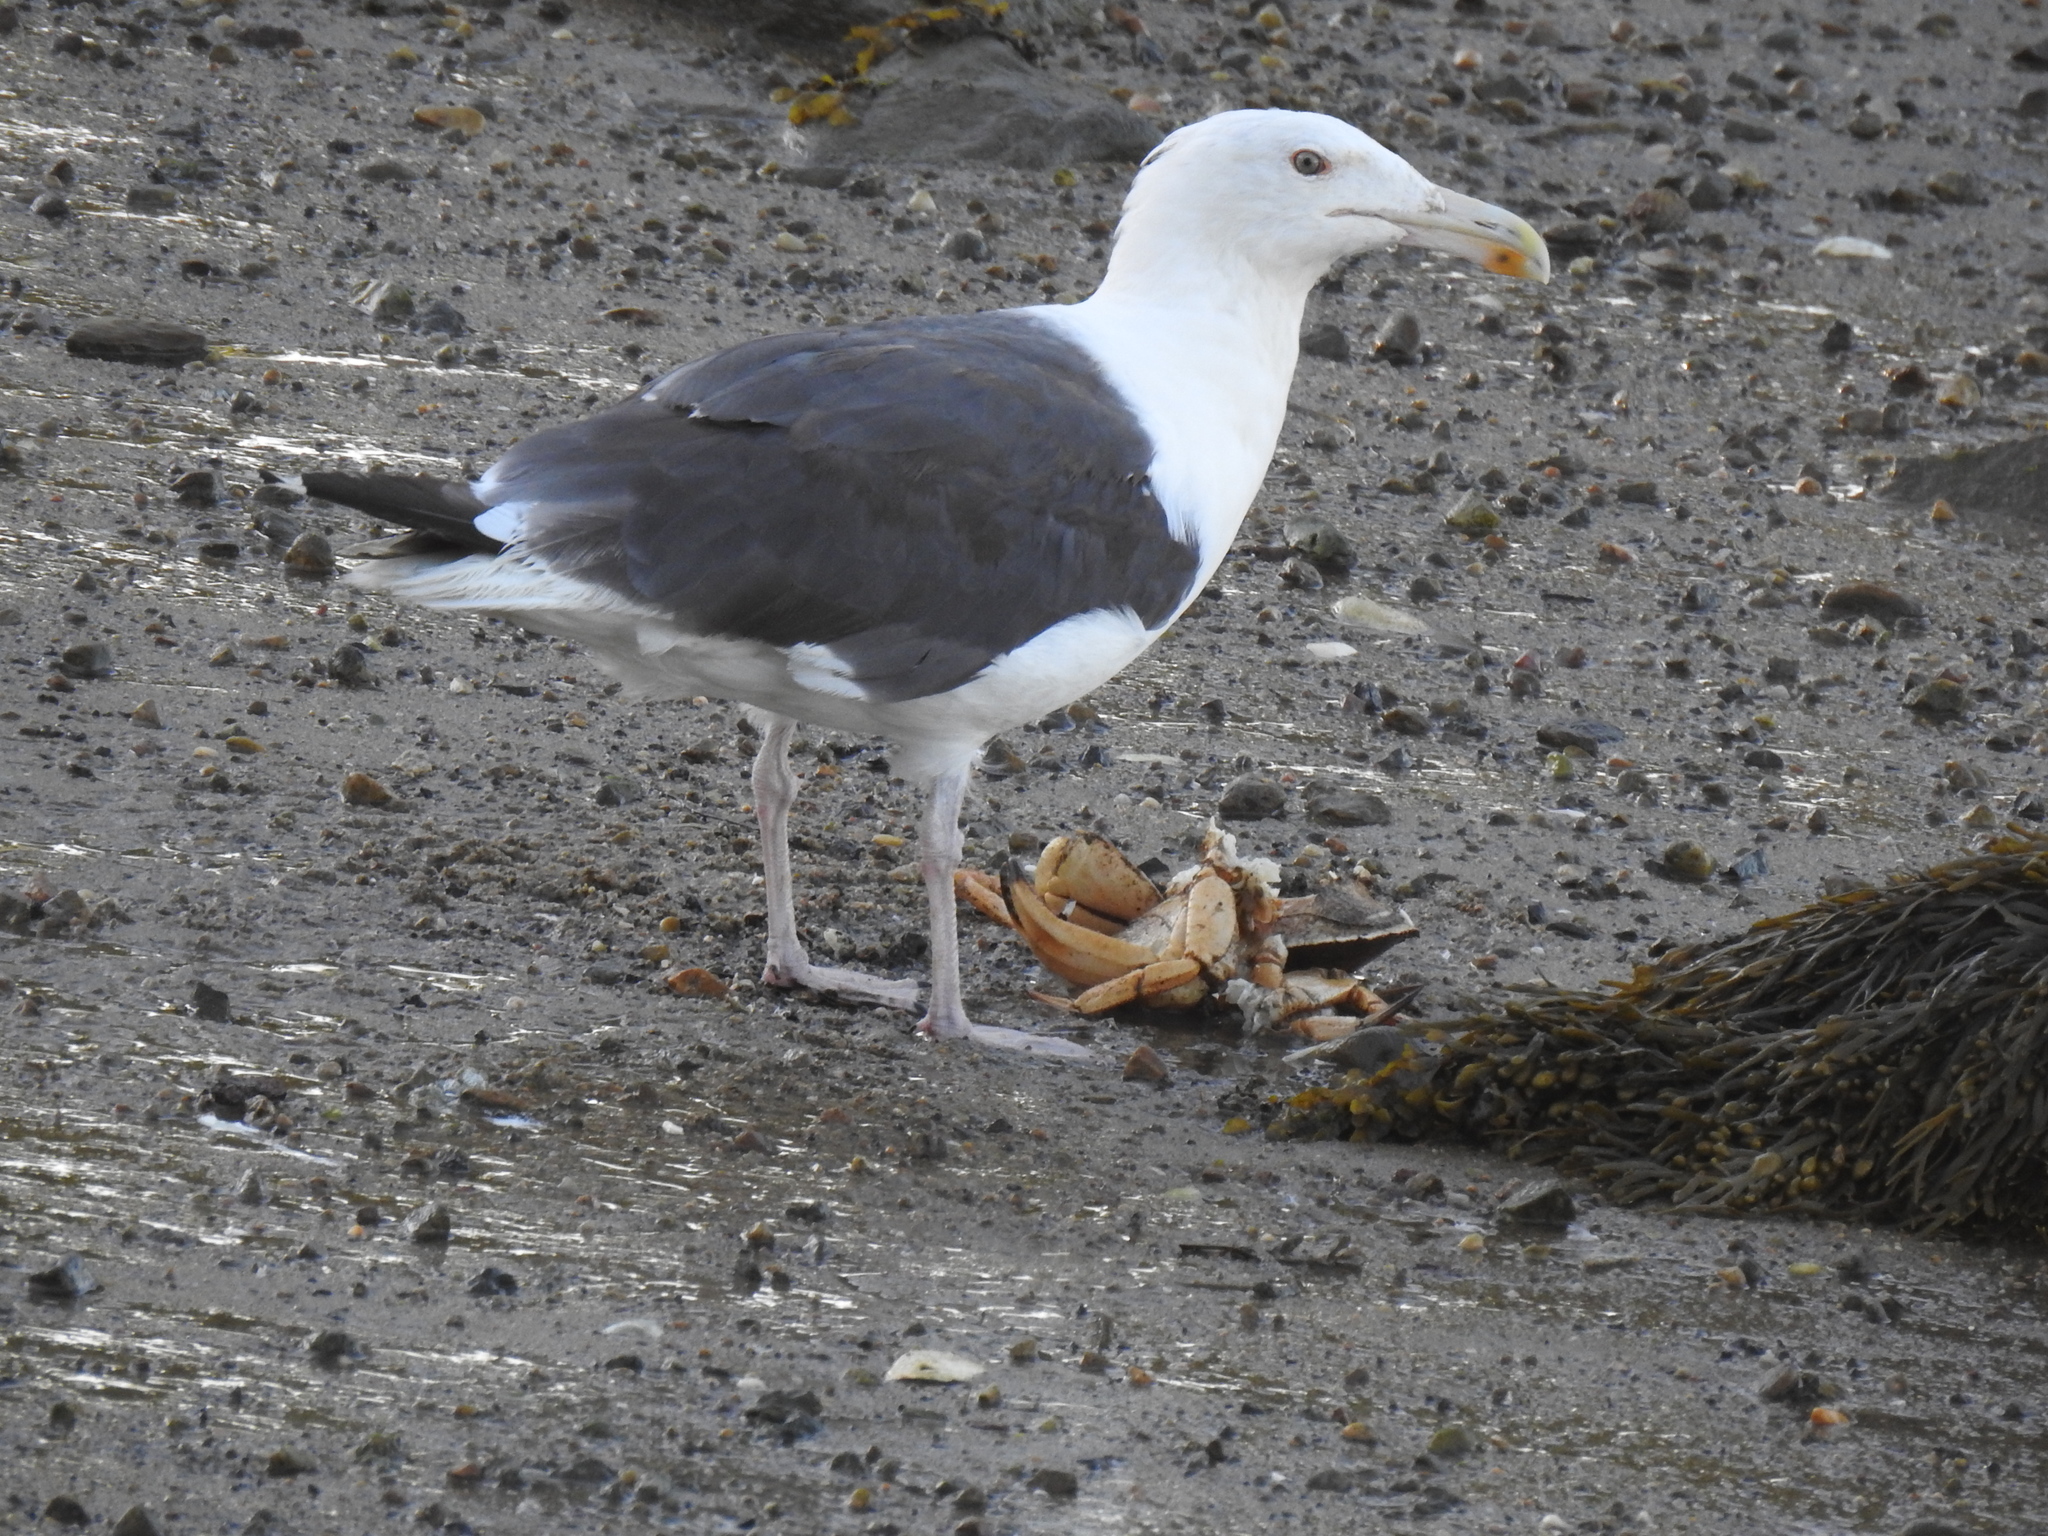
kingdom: Animalia
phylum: Chordata
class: Aves
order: Charadriiformes
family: Laridae
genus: Larus
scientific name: Larus marinus
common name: Great black-backed gull
